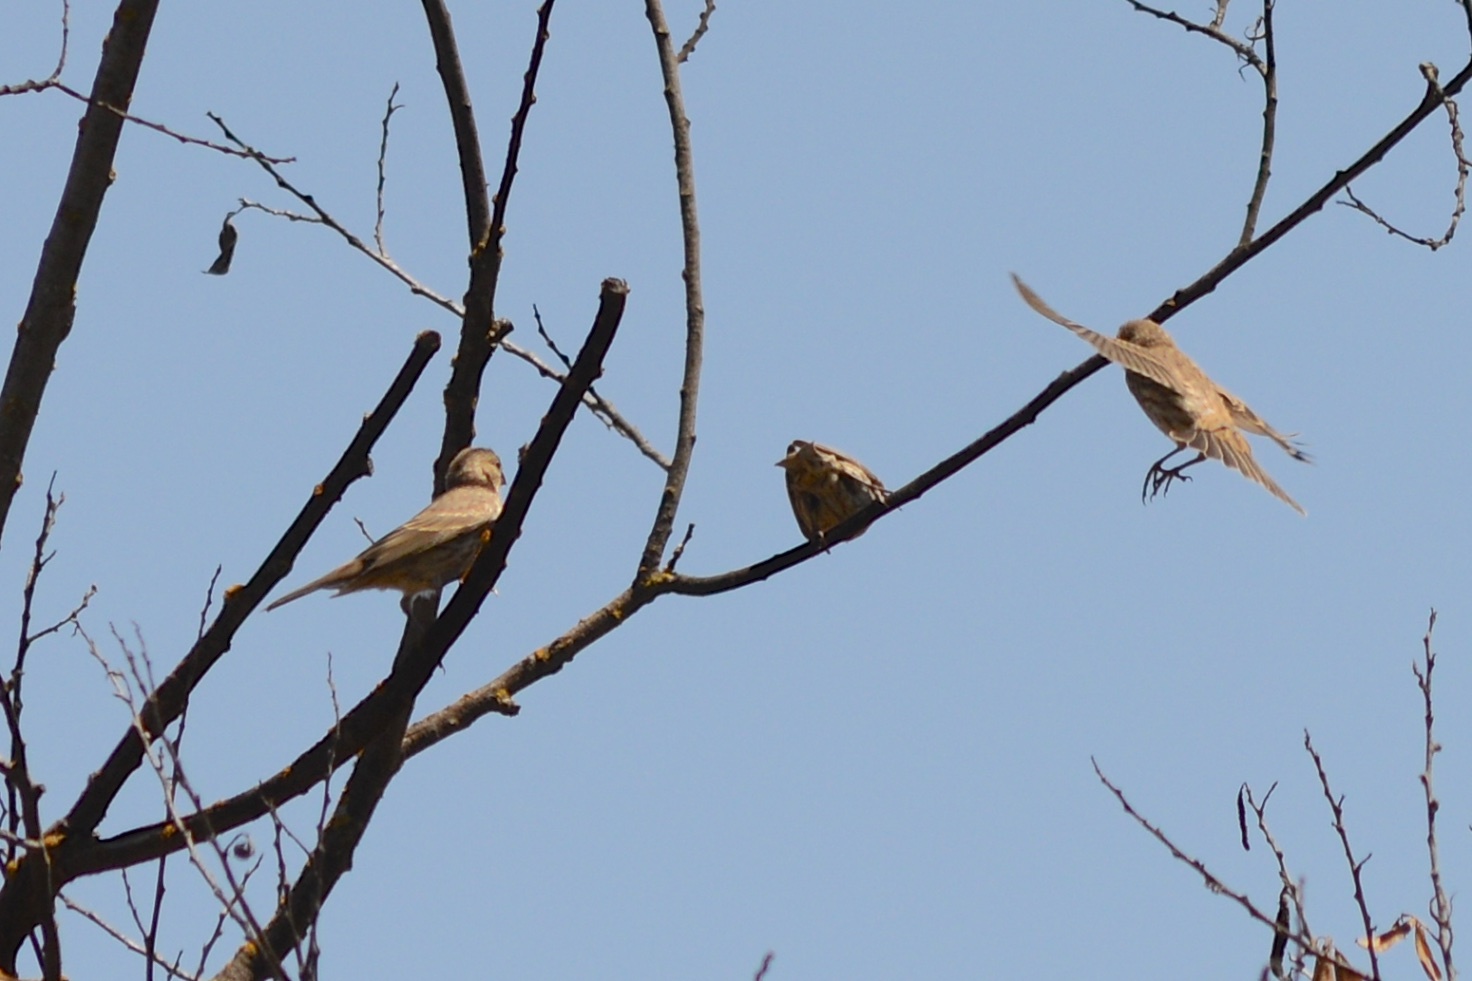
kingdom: Animalia
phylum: Chordata
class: Aves
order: Passeriformes
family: Fringillidae
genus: Haemorhous
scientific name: Haemorhous mexicanus
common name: House finch
